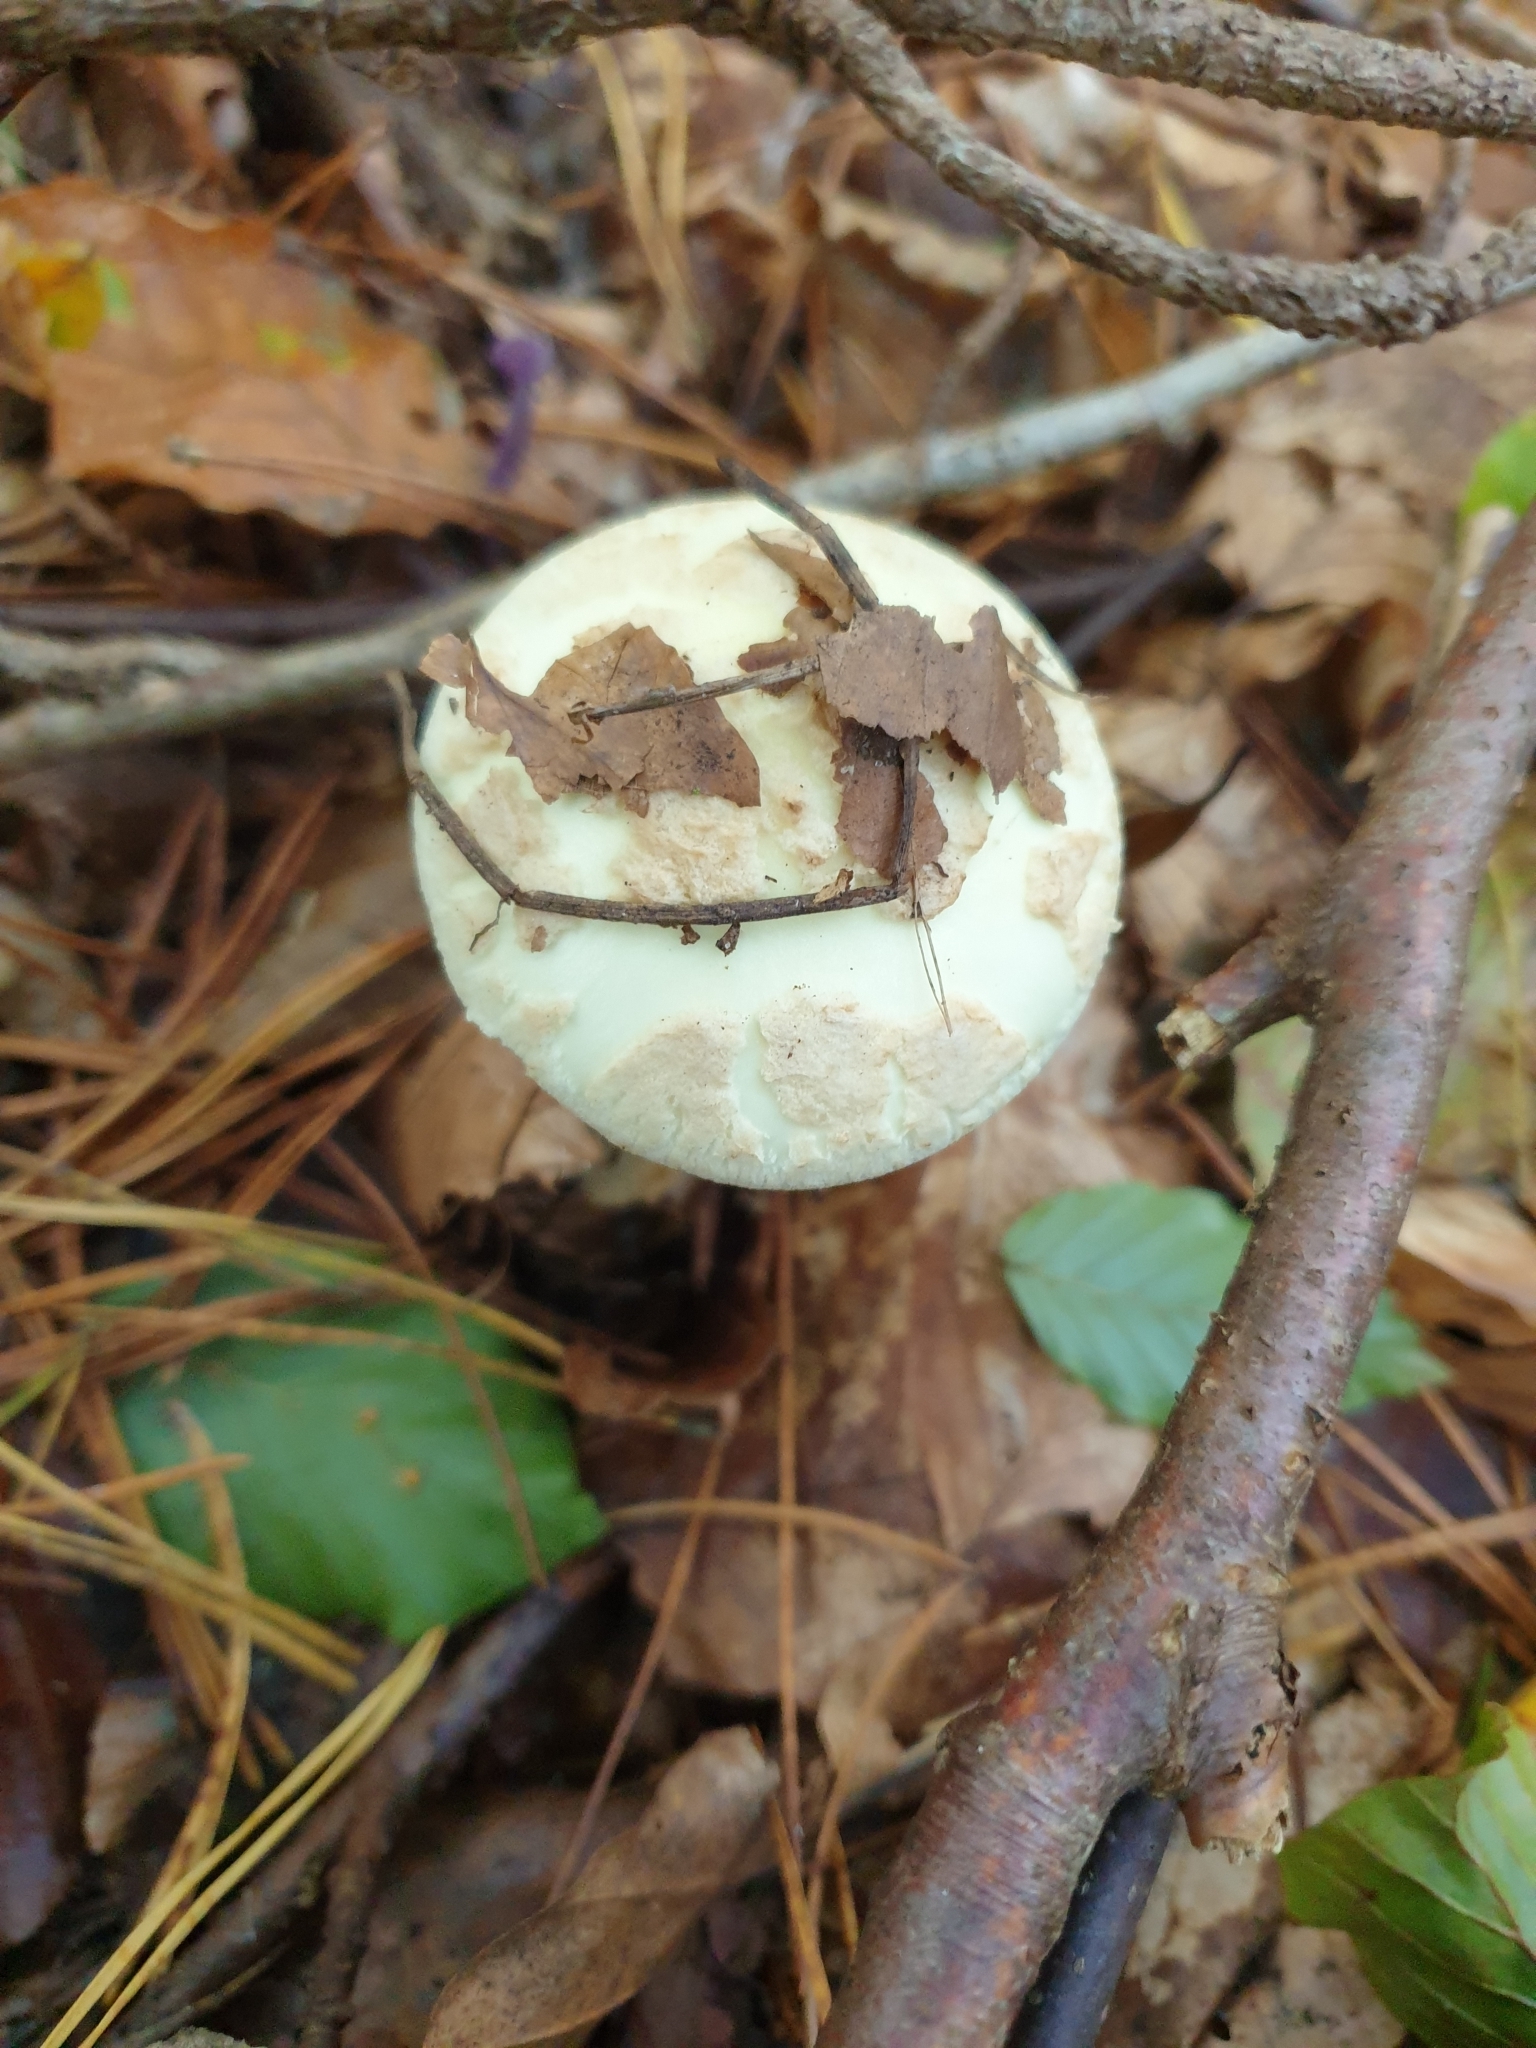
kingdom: Fungi
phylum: Basidiomycota
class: Agaricomycetes
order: Agaricales
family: Amanitaceae
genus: Amanita
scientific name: Amanita citrina
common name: False death-cap
